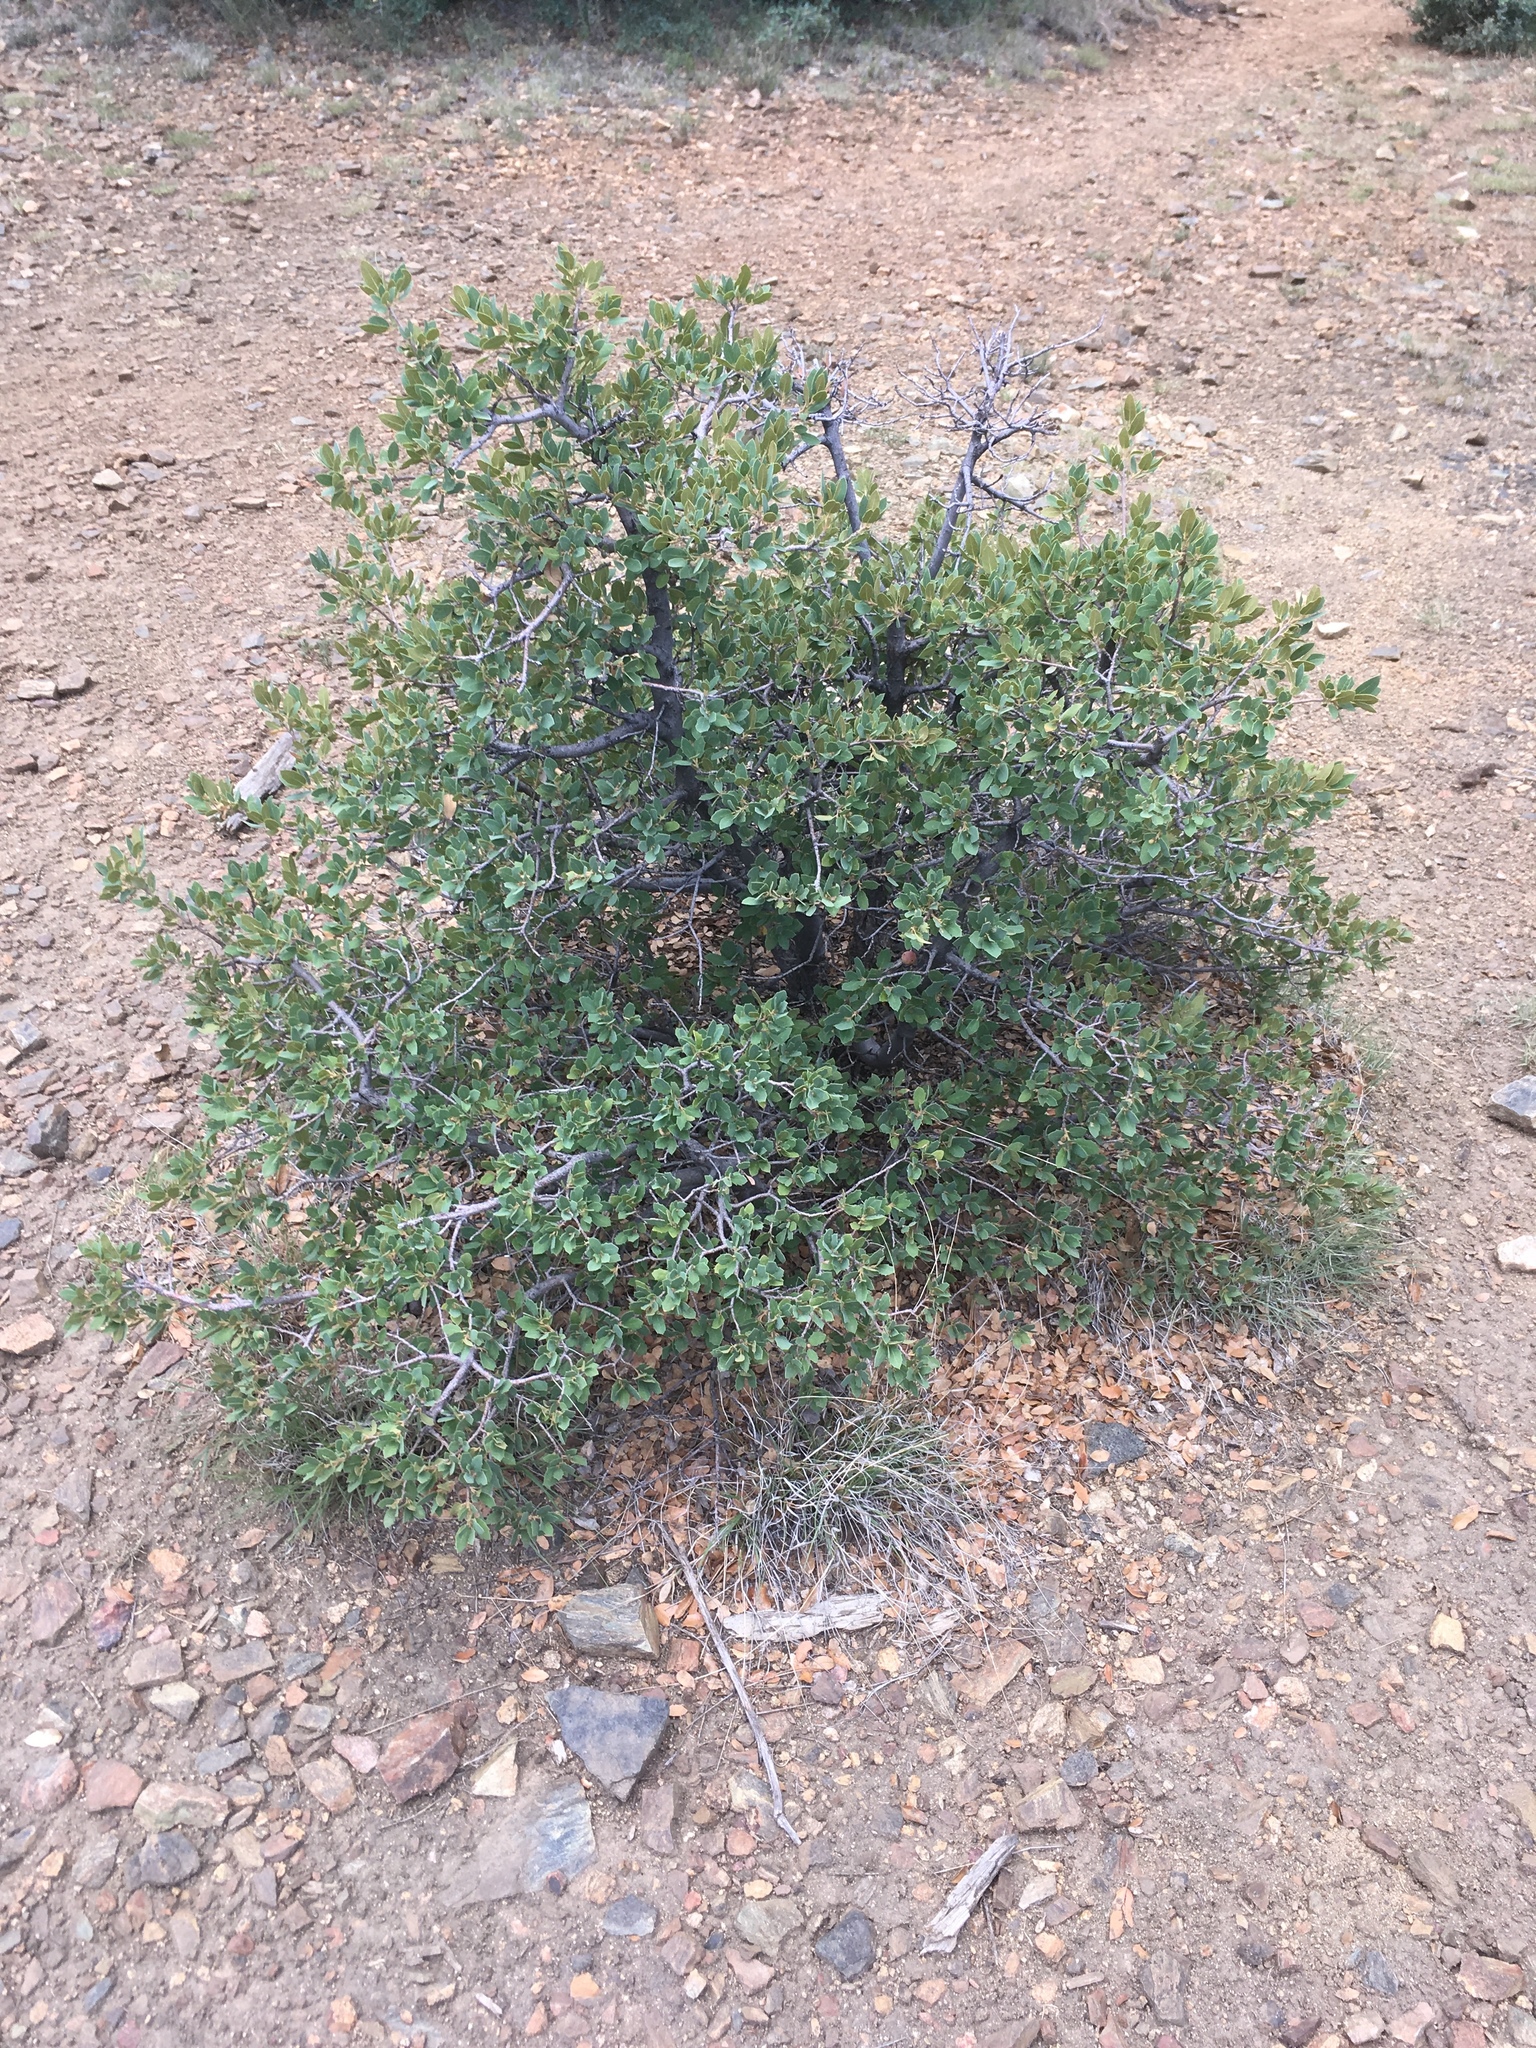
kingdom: Plantae
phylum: Tracheophyta
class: Magnoliopsida
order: Fagales
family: Fagaceae
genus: Quercus
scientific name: Quercus turbinella
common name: Sonoran scrub oak
